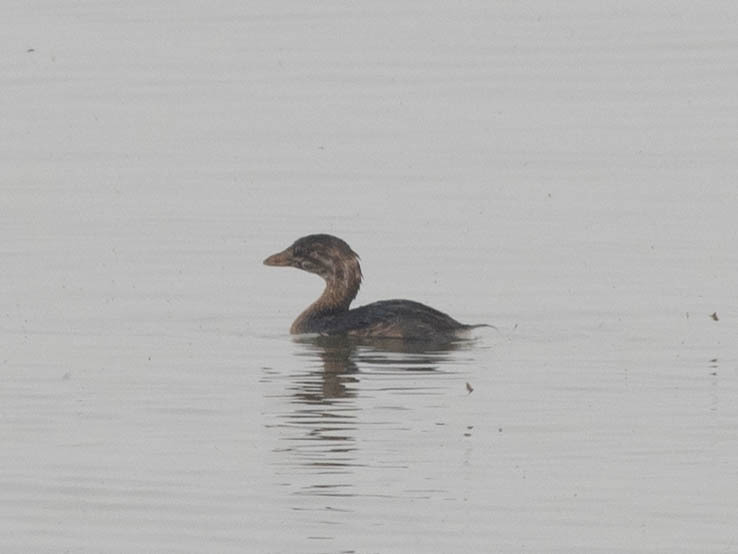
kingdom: Animalia
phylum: Chordata
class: Aves
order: Podicipediformes
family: Podicipedidae
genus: Podilymbus
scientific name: Podilymbus podiceps
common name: Pied-billed grebe
